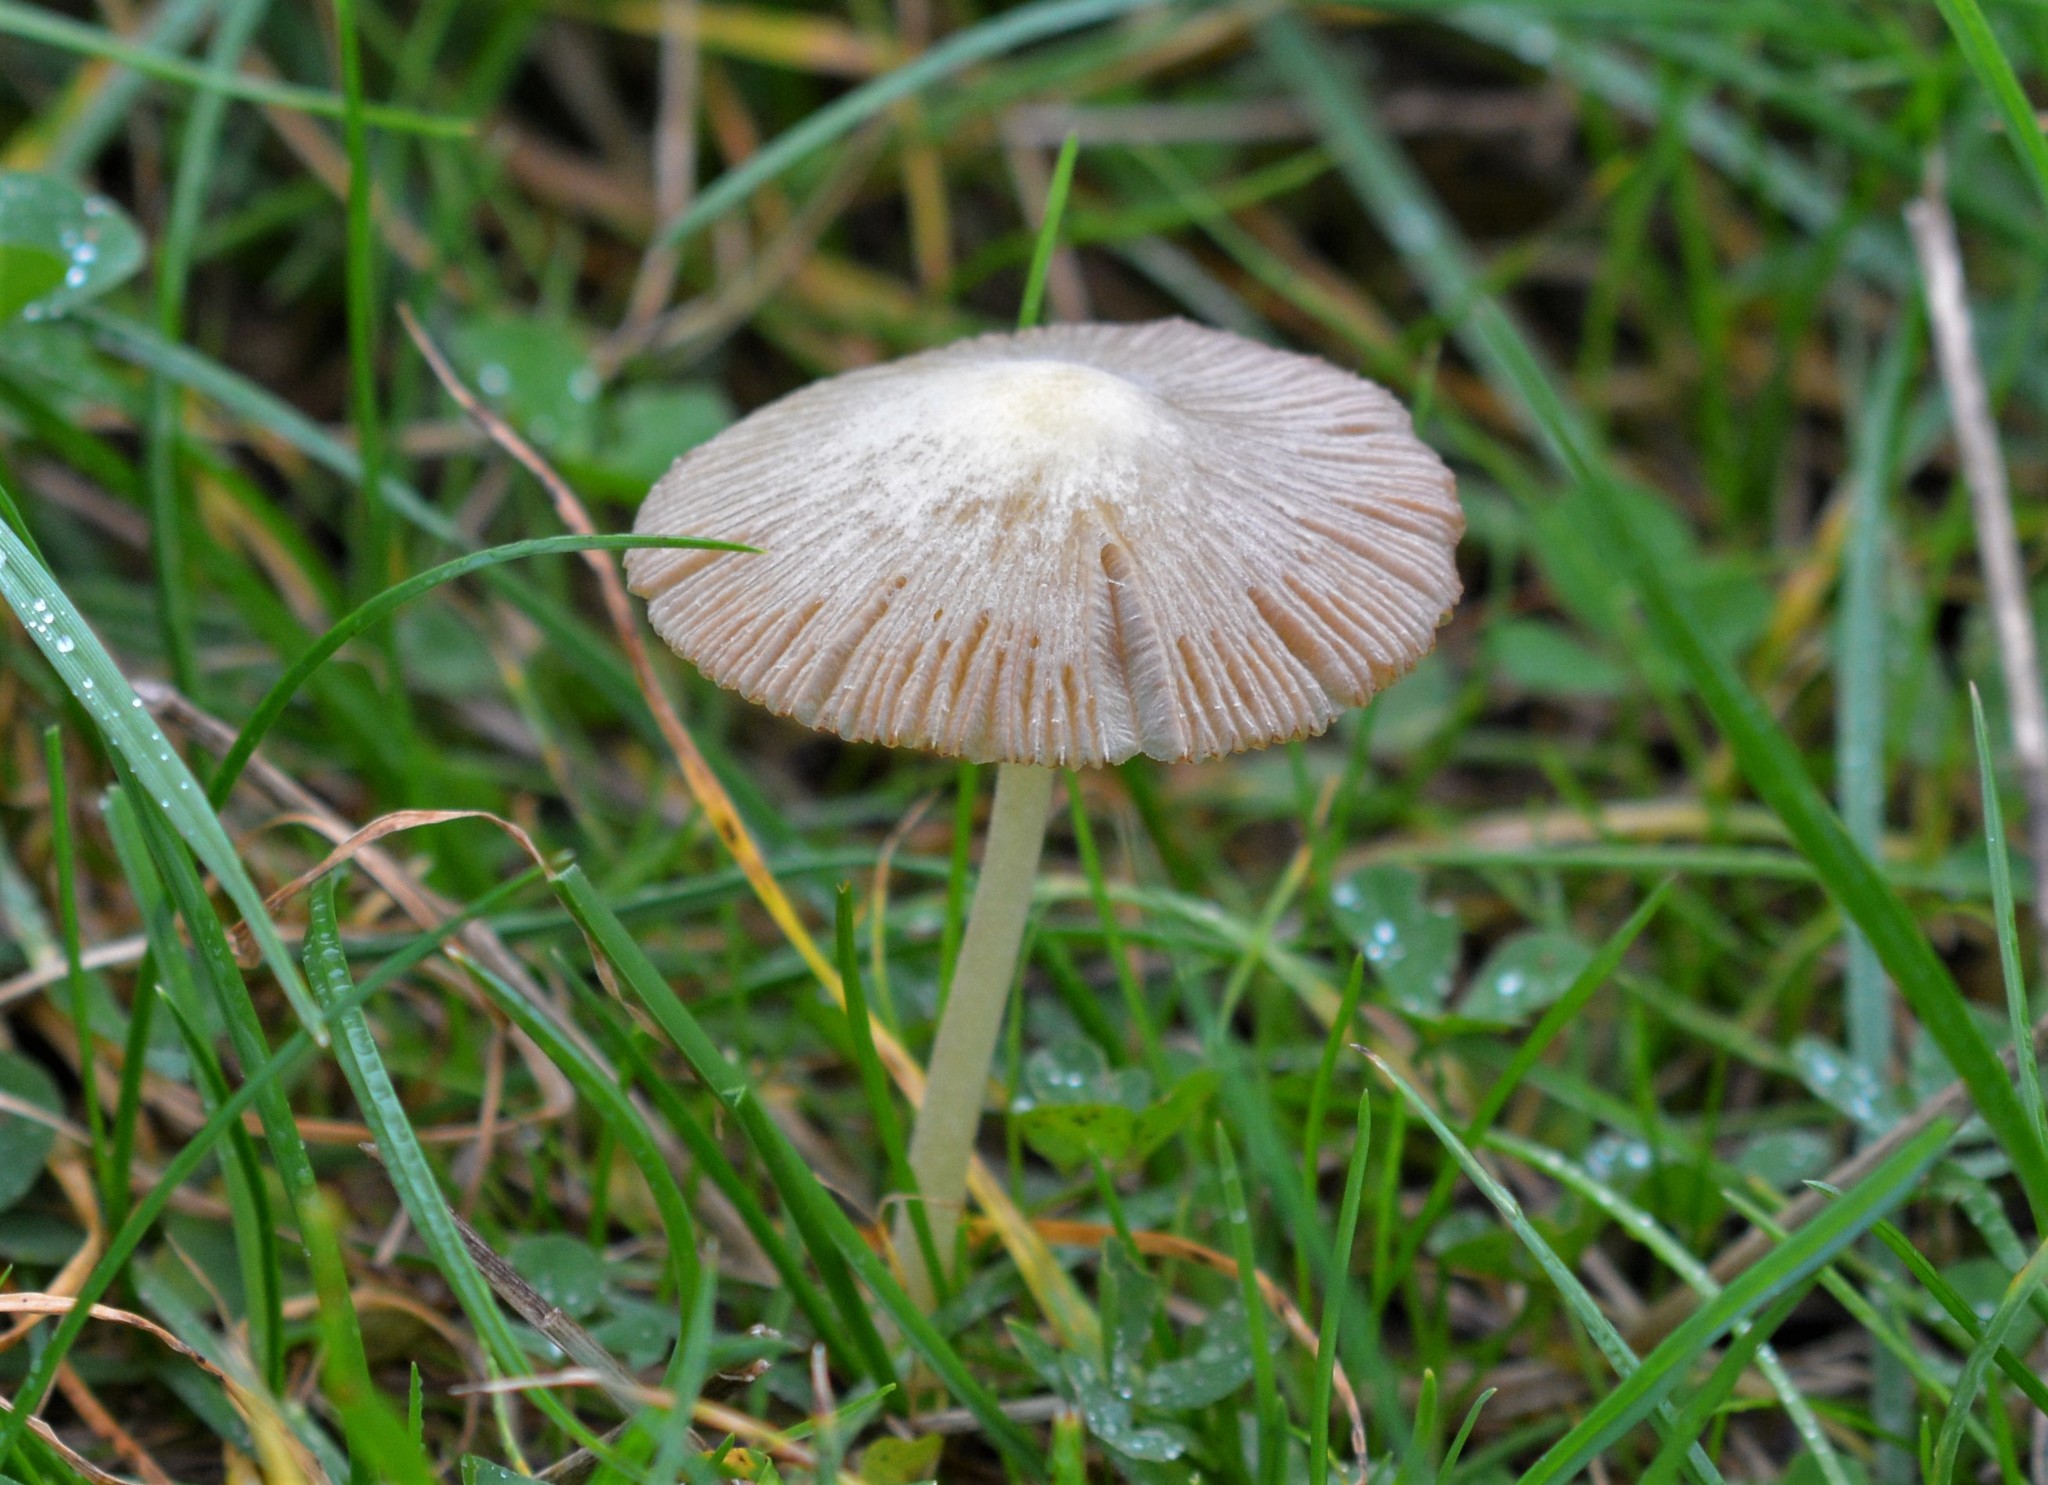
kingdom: Fungi
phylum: Basidiomycota
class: Agaricomycetes
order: Agaricales
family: Bolbitiaceae
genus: Bolbitius
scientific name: Bolbitius titubans
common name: Yellow fieldcap
